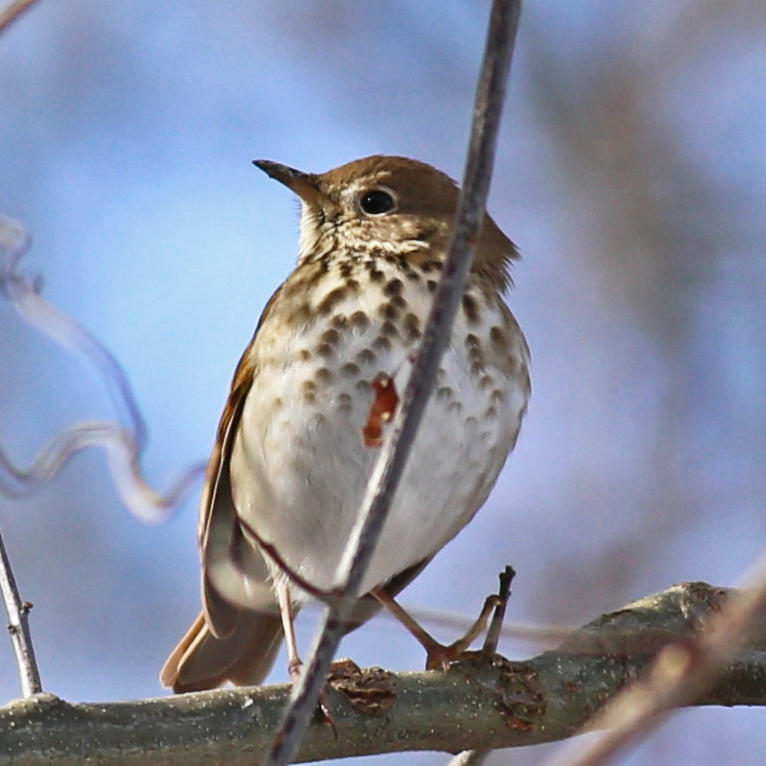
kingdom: Animalia
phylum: Chordata
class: Aves
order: Passeriformes
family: Turdidae
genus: Catharus
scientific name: Catharus guttatus
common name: Hermit thrush
